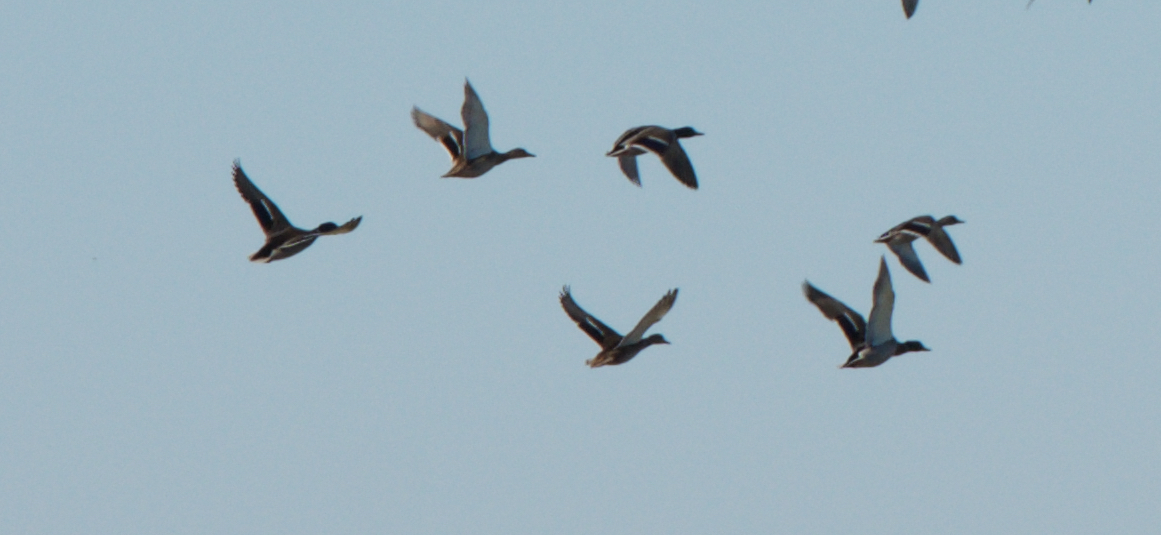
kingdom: Animalia
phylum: Chordata
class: Aves
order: Anseriformes
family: Anatidae
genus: Anas
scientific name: Anas platyrhynchos
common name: Mallard
